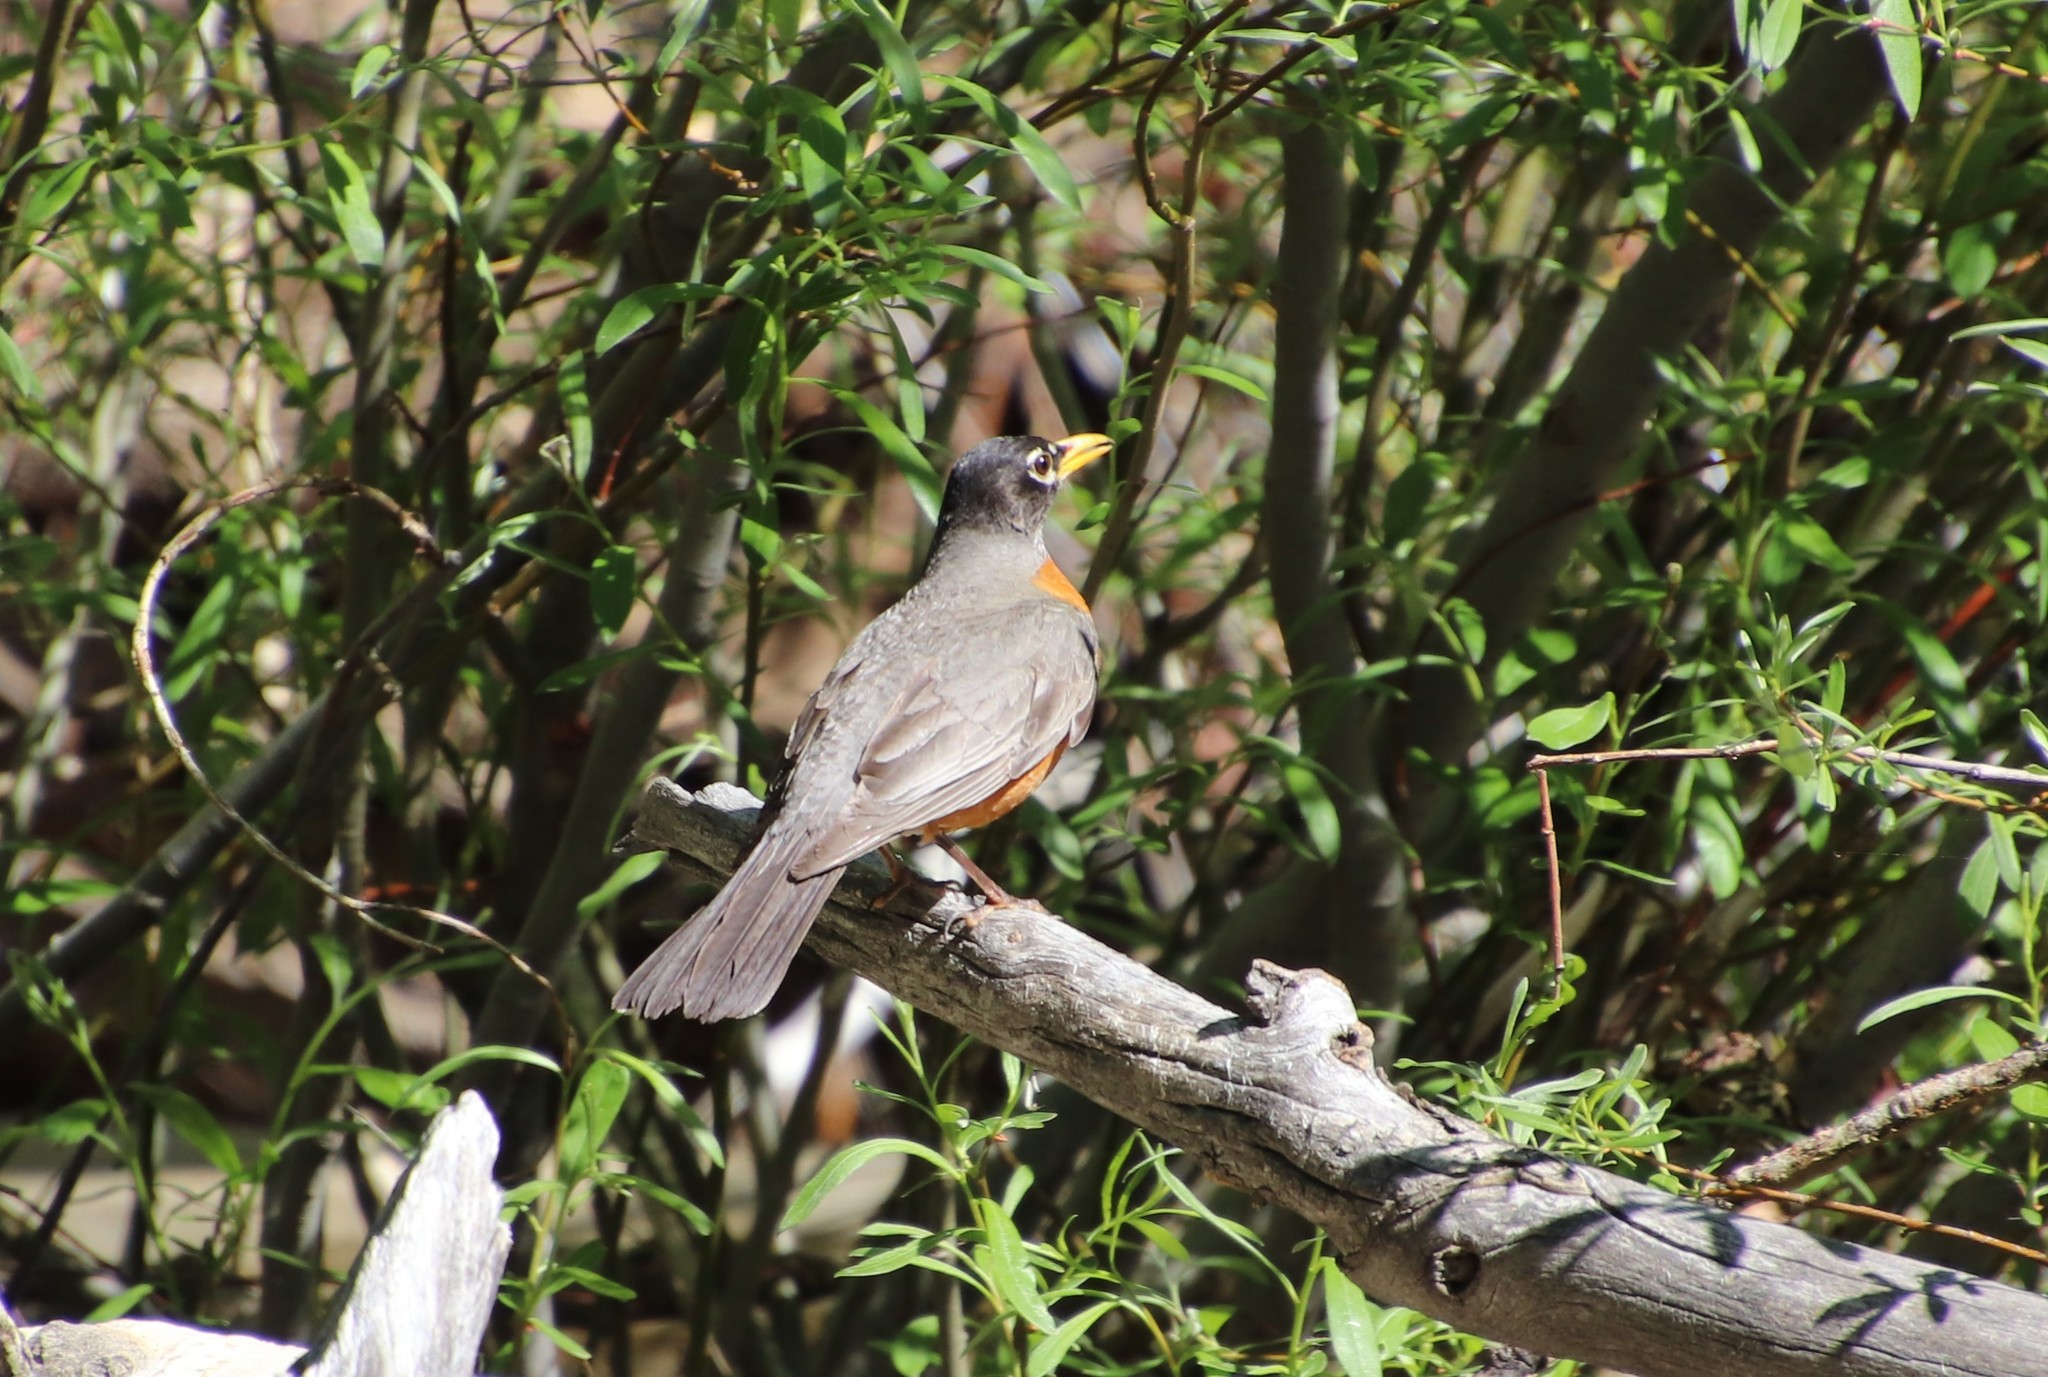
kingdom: Animalia
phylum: Chordata
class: Aves
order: Passeriformes
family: Turdidae
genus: Turdus
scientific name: Turdus migratorius
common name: American robin
